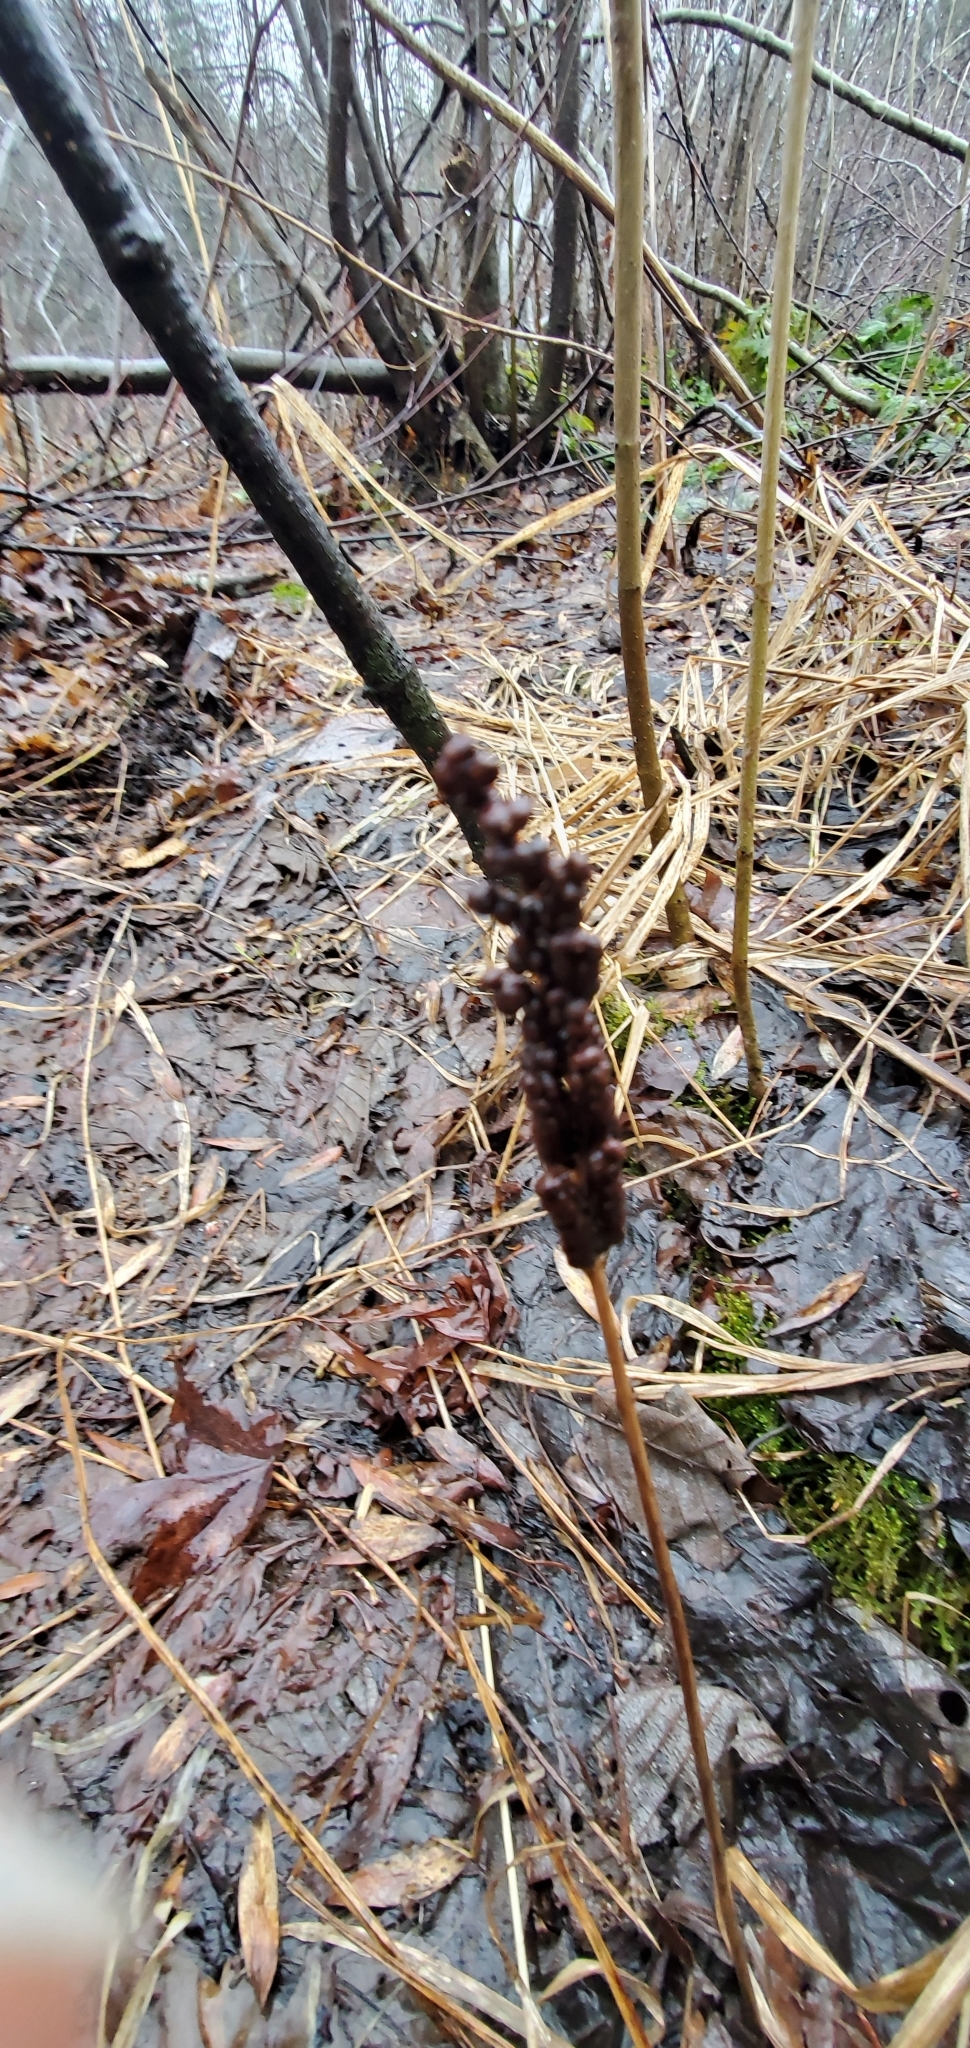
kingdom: Plantae
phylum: Tracheophyta
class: Polypodiopsida
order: Polypodiales
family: Onocleaceae
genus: Onoclea
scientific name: Onoclea sensibilis
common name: Sensitive fern
